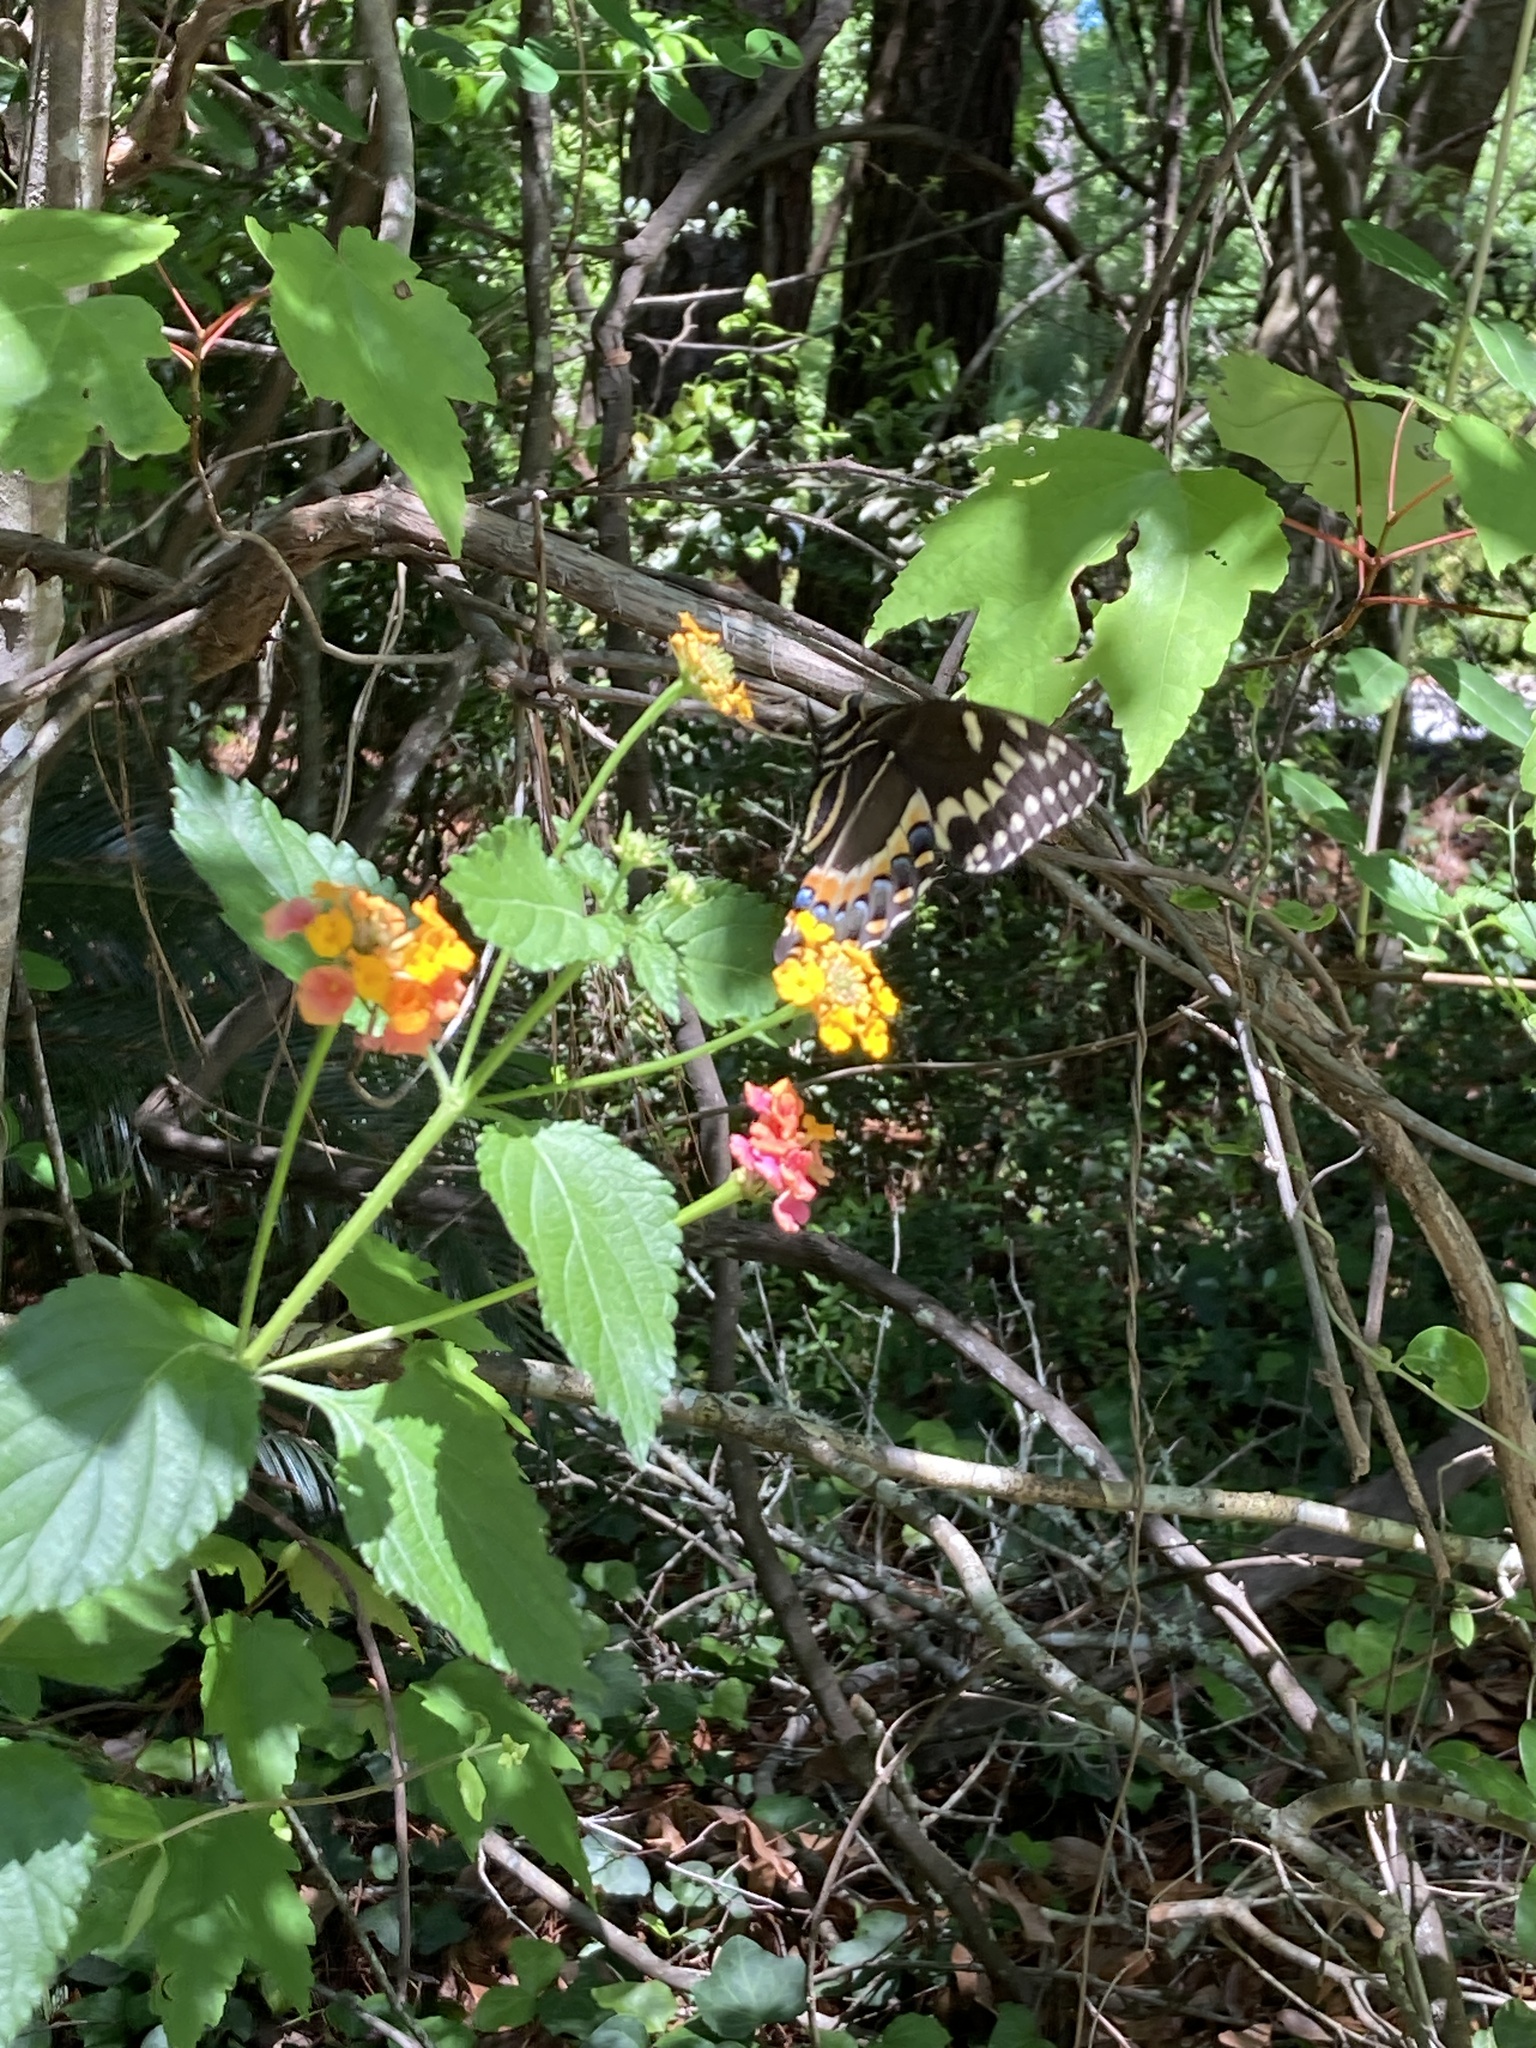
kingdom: Animalia
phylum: Arthropoda
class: Insecta
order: Lepidoptera
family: Papilionidae
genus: Papilio
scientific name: Papilio palamedes
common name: Palamedes swallowtail
